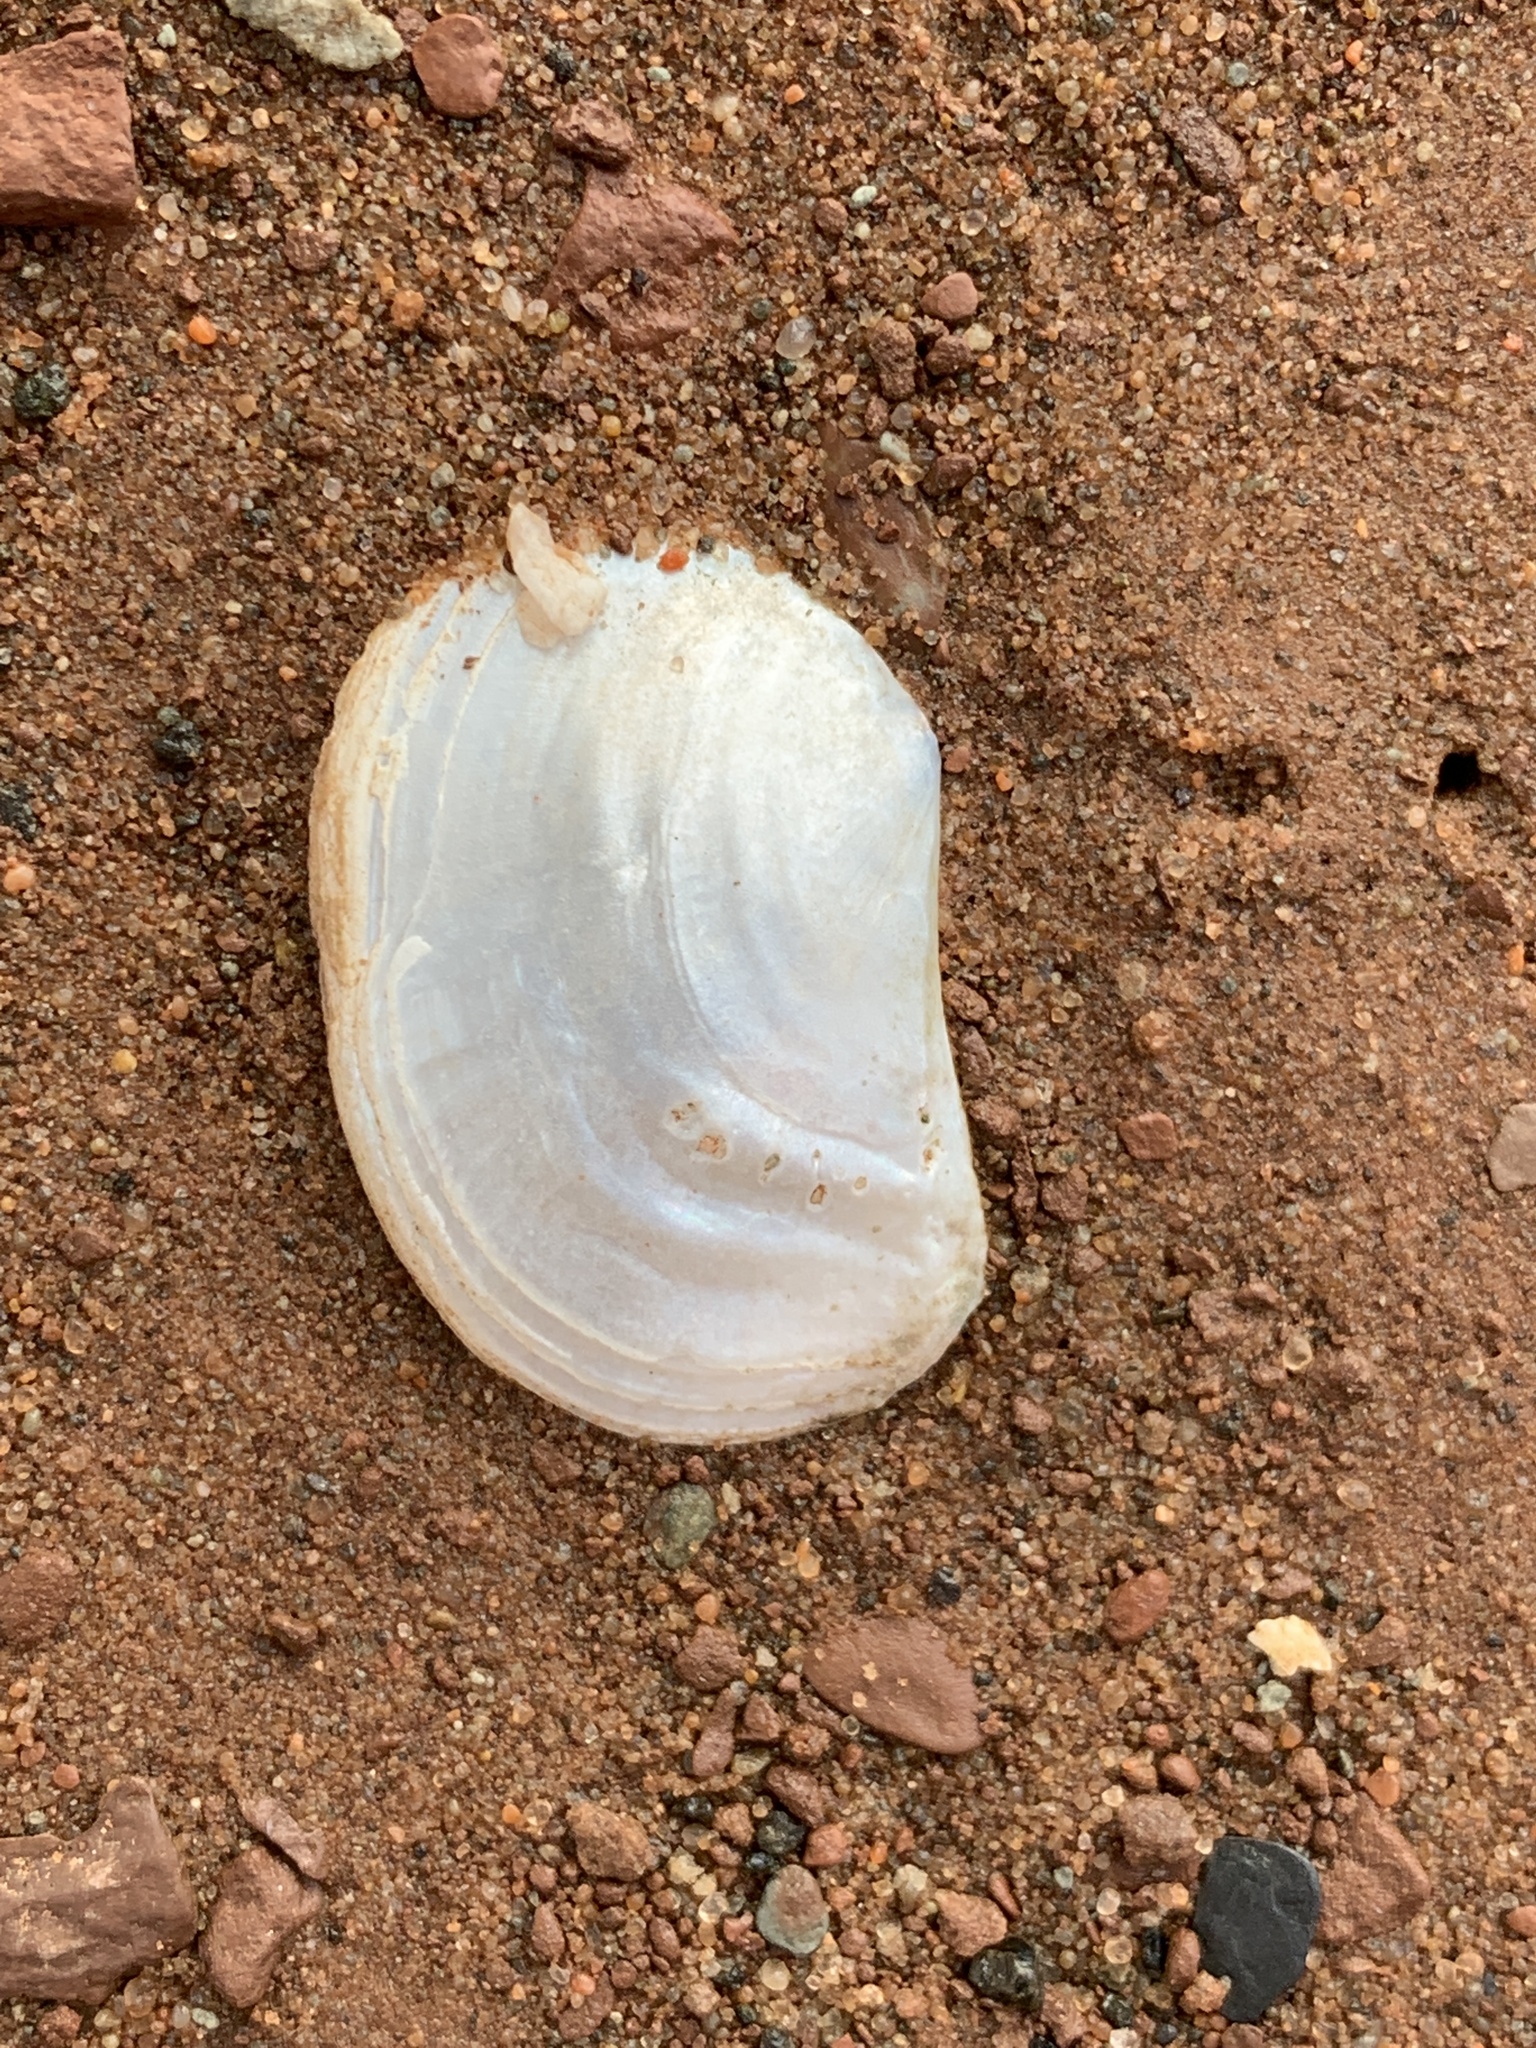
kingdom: Animalia
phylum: Mollusca
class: Bivalvia
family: Pandoridae
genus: Pandora
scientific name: Pandora gouldiana
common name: Rounded pandora
